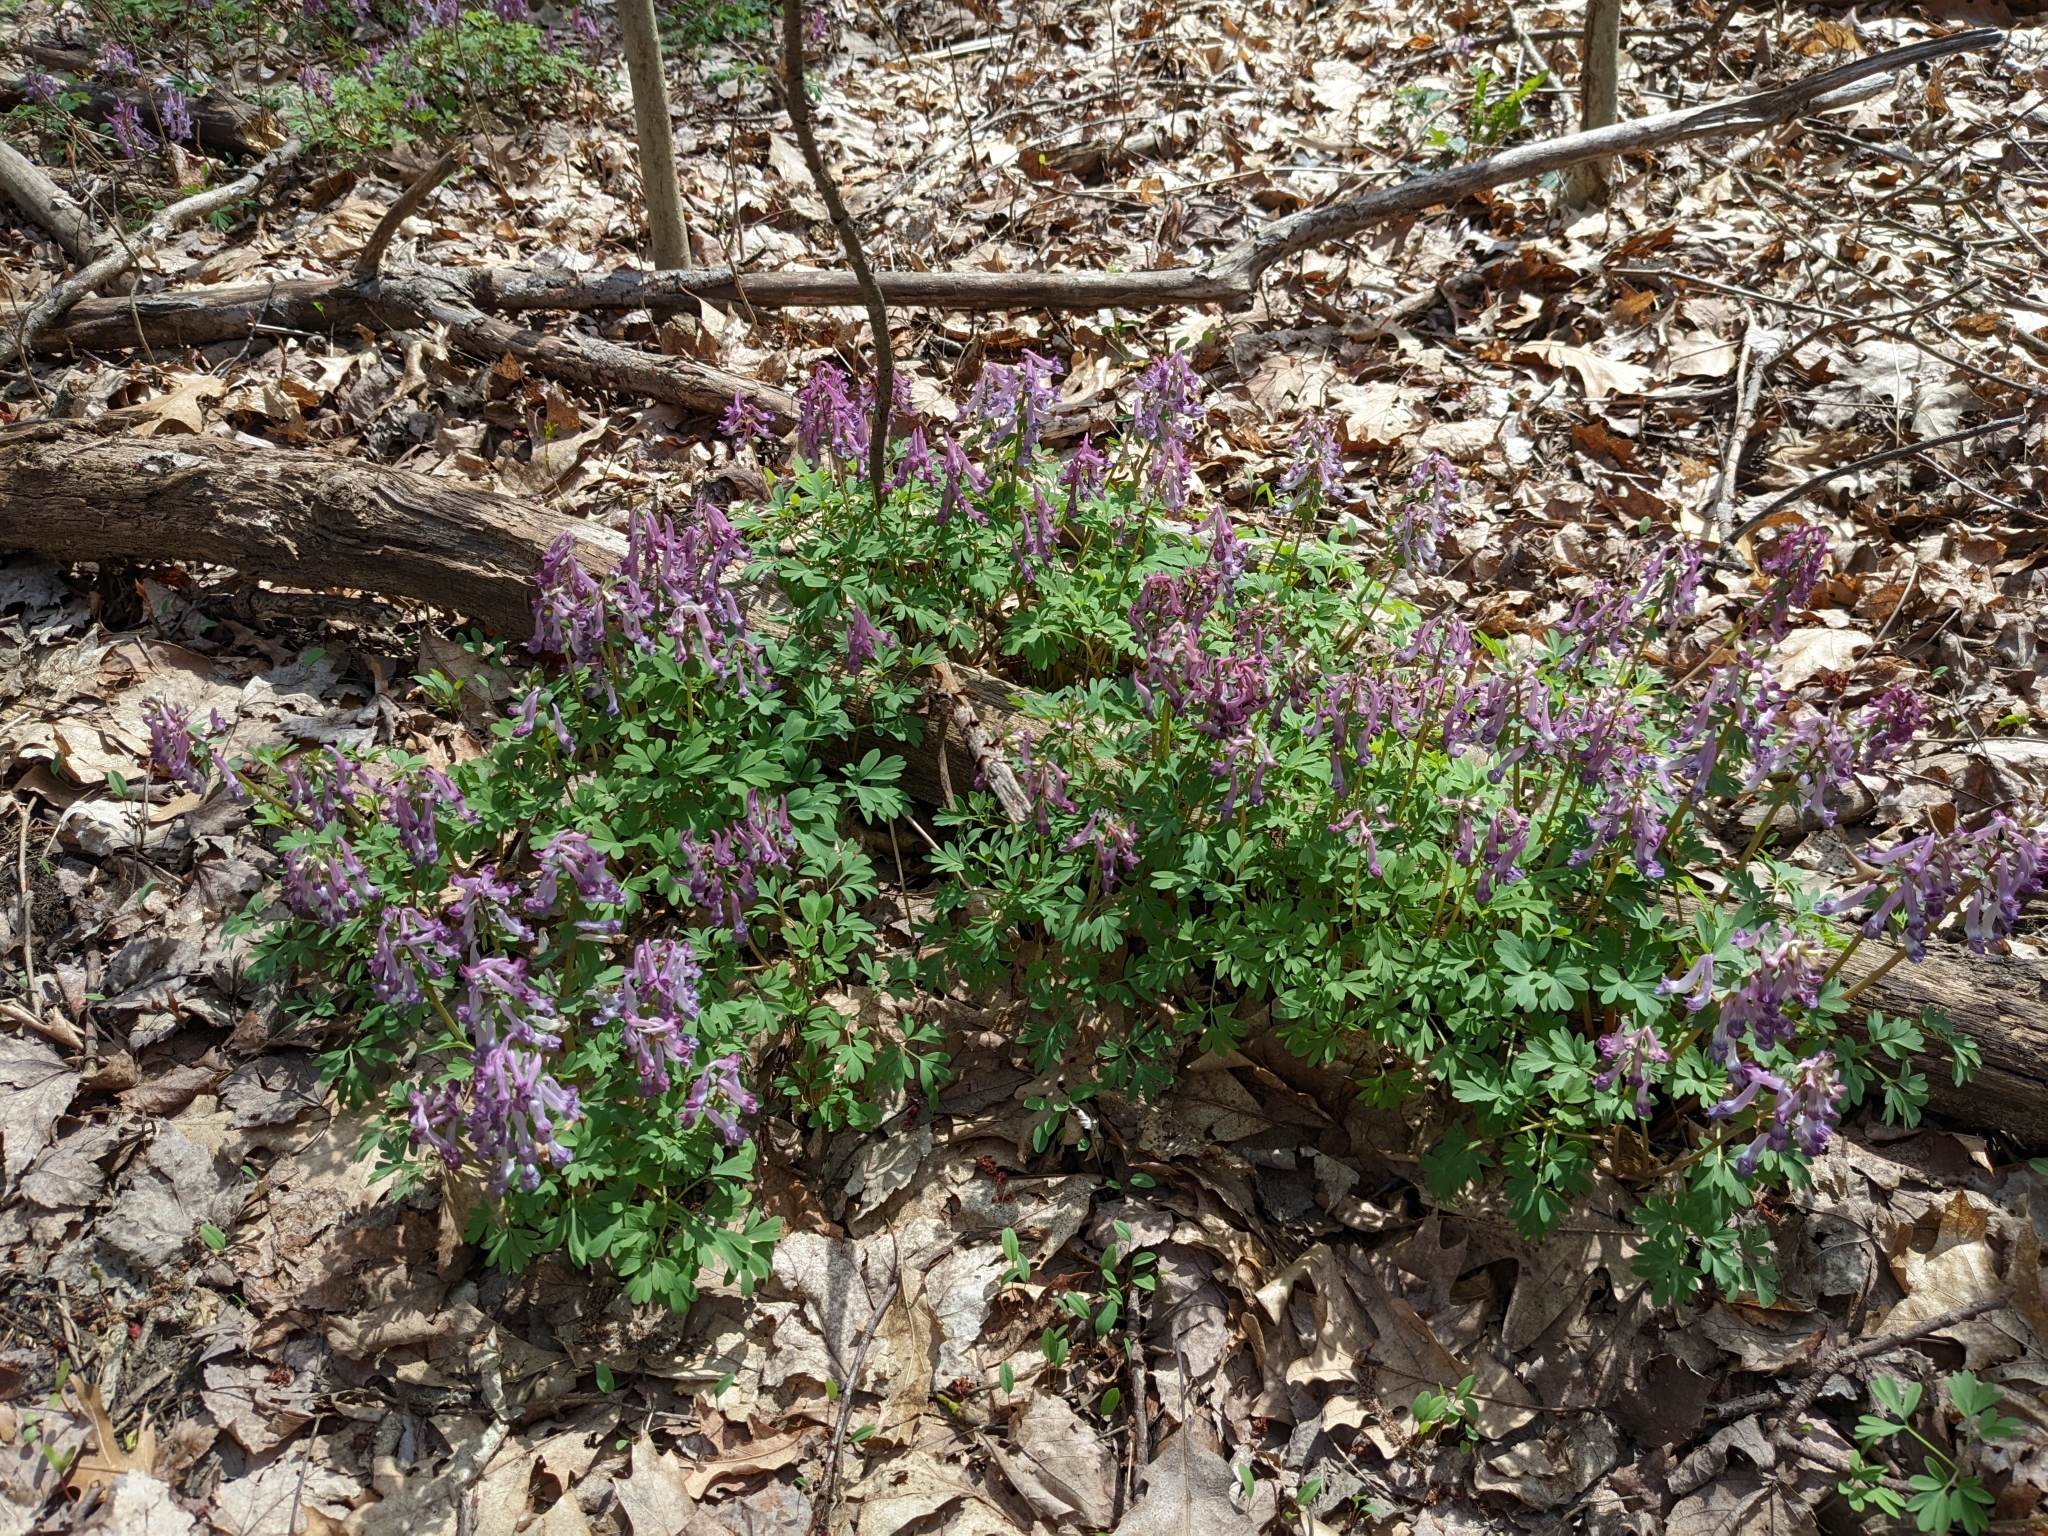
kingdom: Plantae
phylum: Tracheophyta
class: Magnoliopsida
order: Ranunculales
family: Papaveraceae
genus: Corydalis
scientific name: Corydalis solida
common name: Bird-in-a-bush
